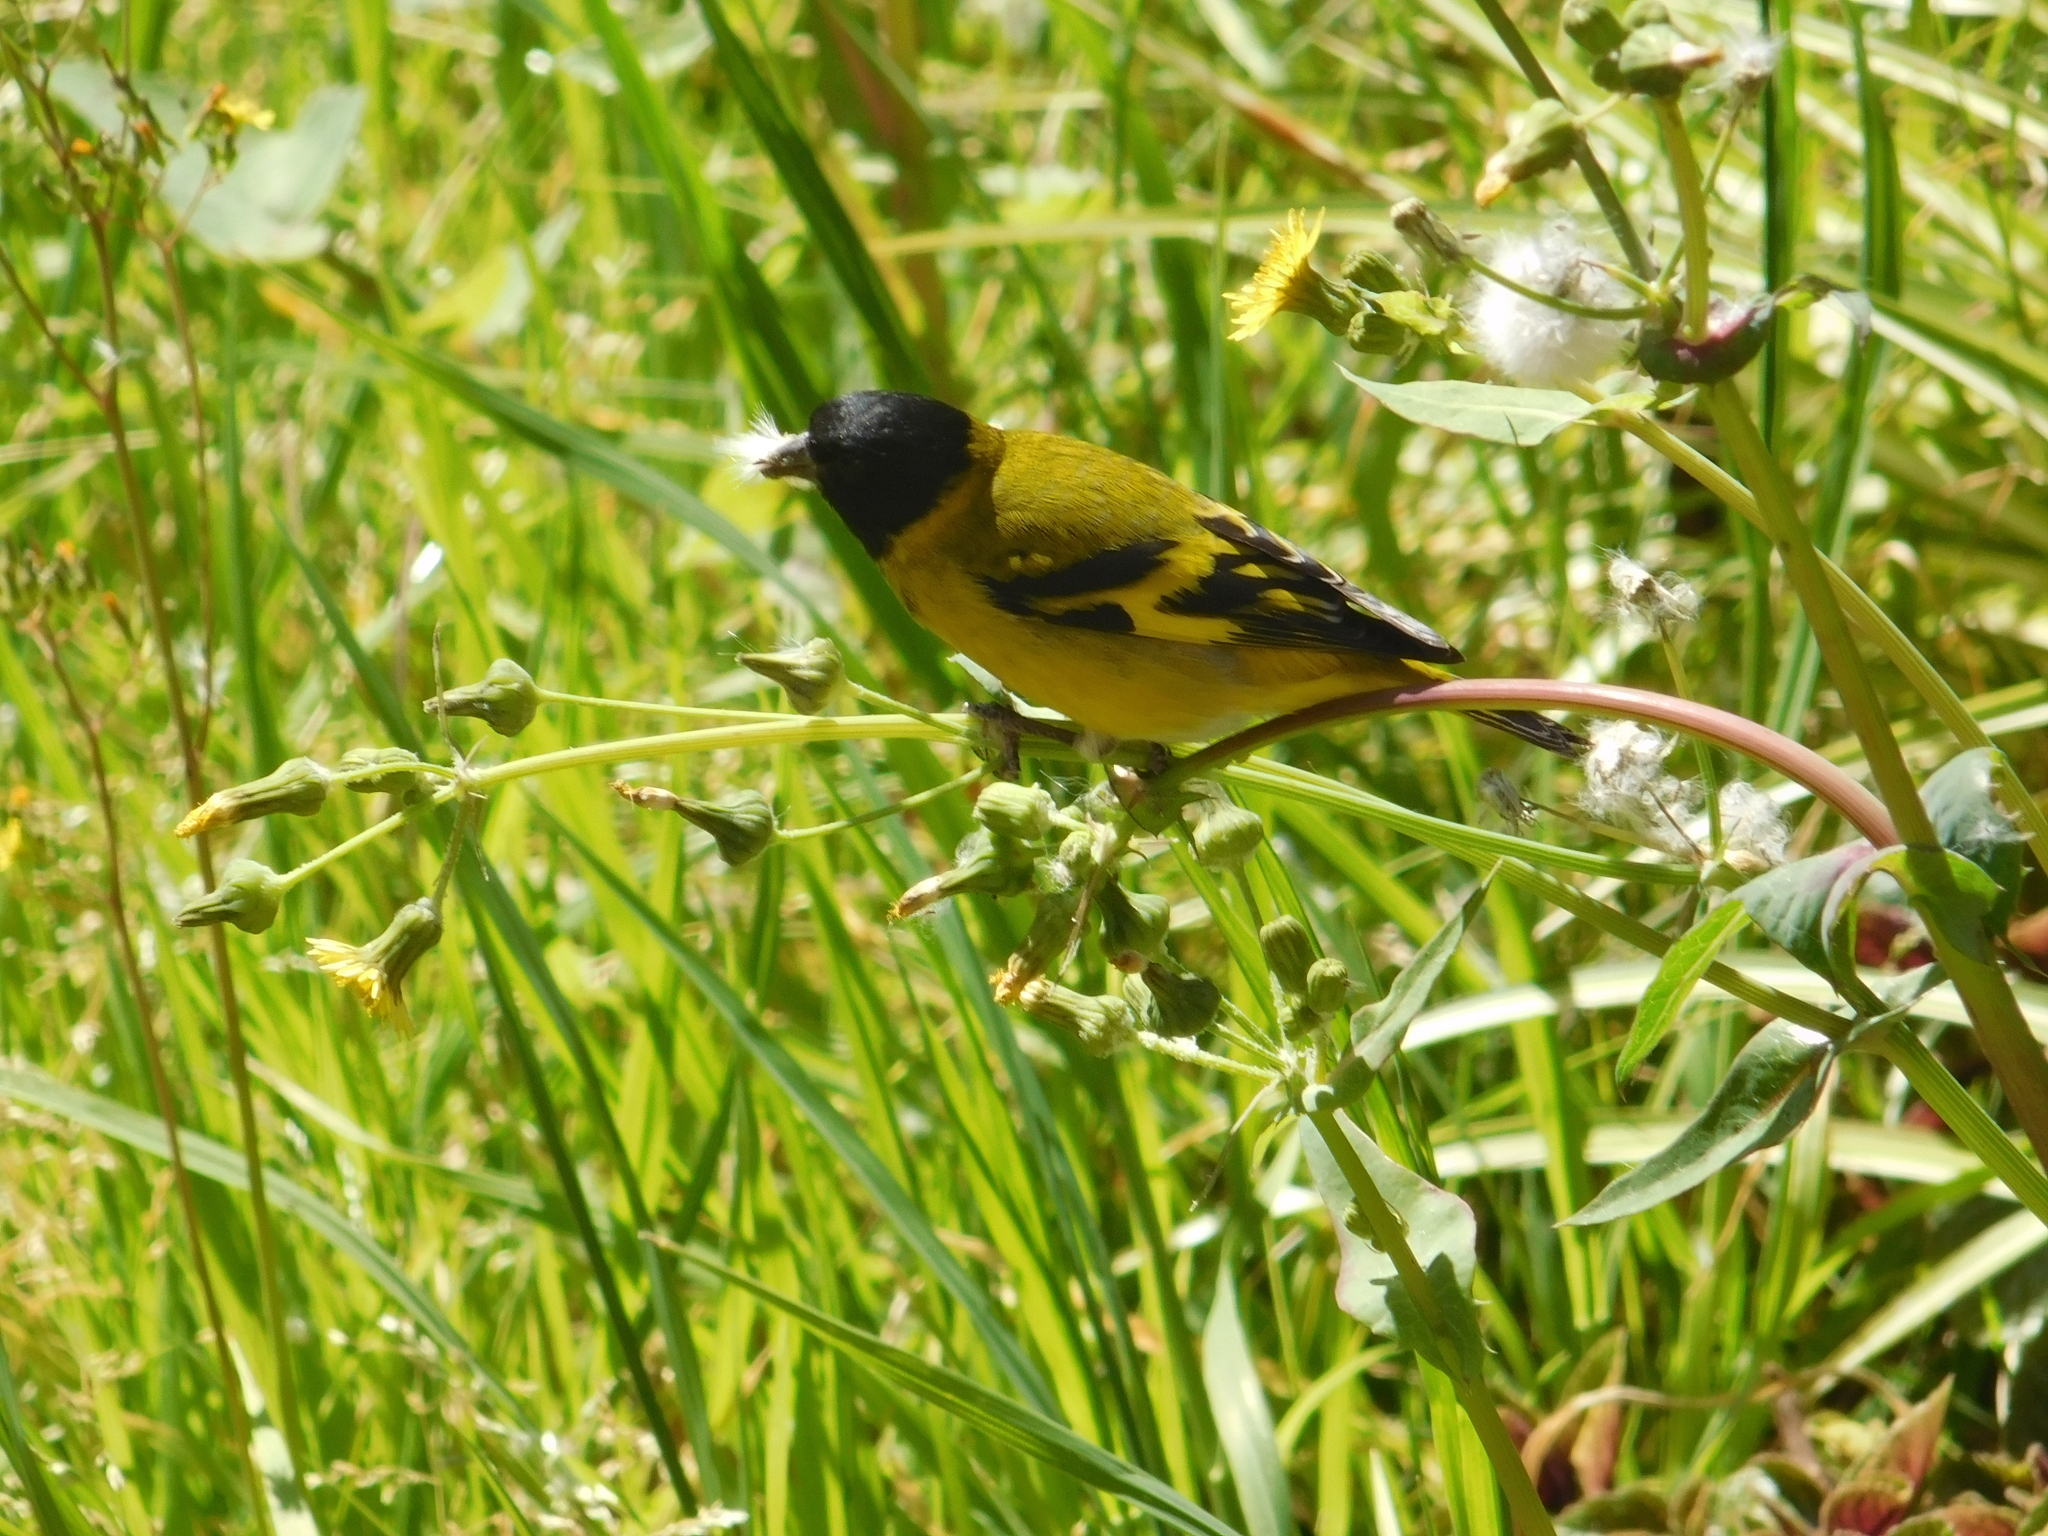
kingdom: Animalia
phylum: Chordata
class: Aves
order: Passeriformes
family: Fringillidae
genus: Spinus
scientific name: Spinus magellanicus
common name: Hooded siskin
